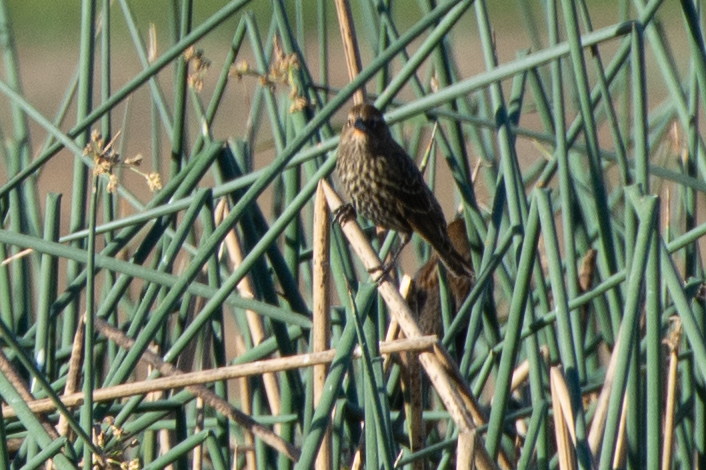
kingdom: Animalia
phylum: Chordata
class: Aves
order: Passeriformes
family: Icteridae
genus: Agelaius
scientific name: Agelaius phoeniceus
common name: Red-winged blackbird
